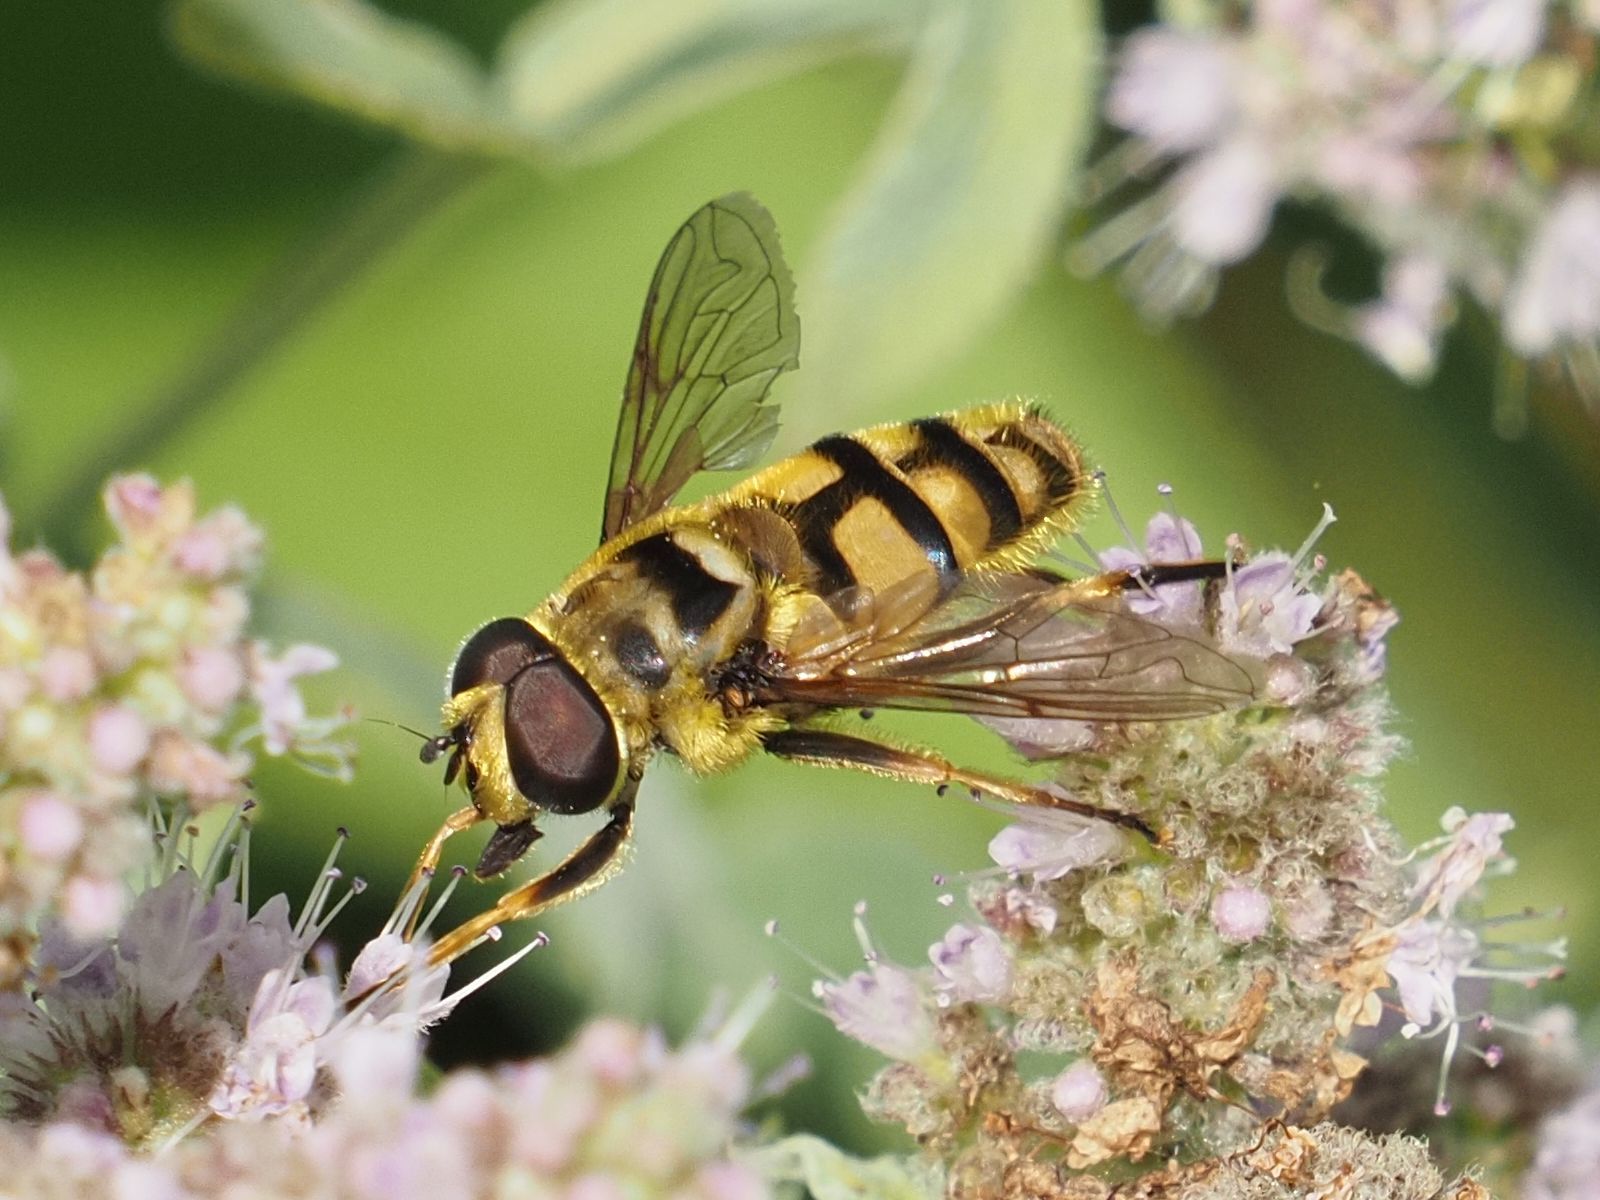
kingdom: Animalia
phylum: Arthropoda
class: Insecta
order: Diptera
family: Syrphidae
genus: Myathropa
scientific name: Myathropa florea
